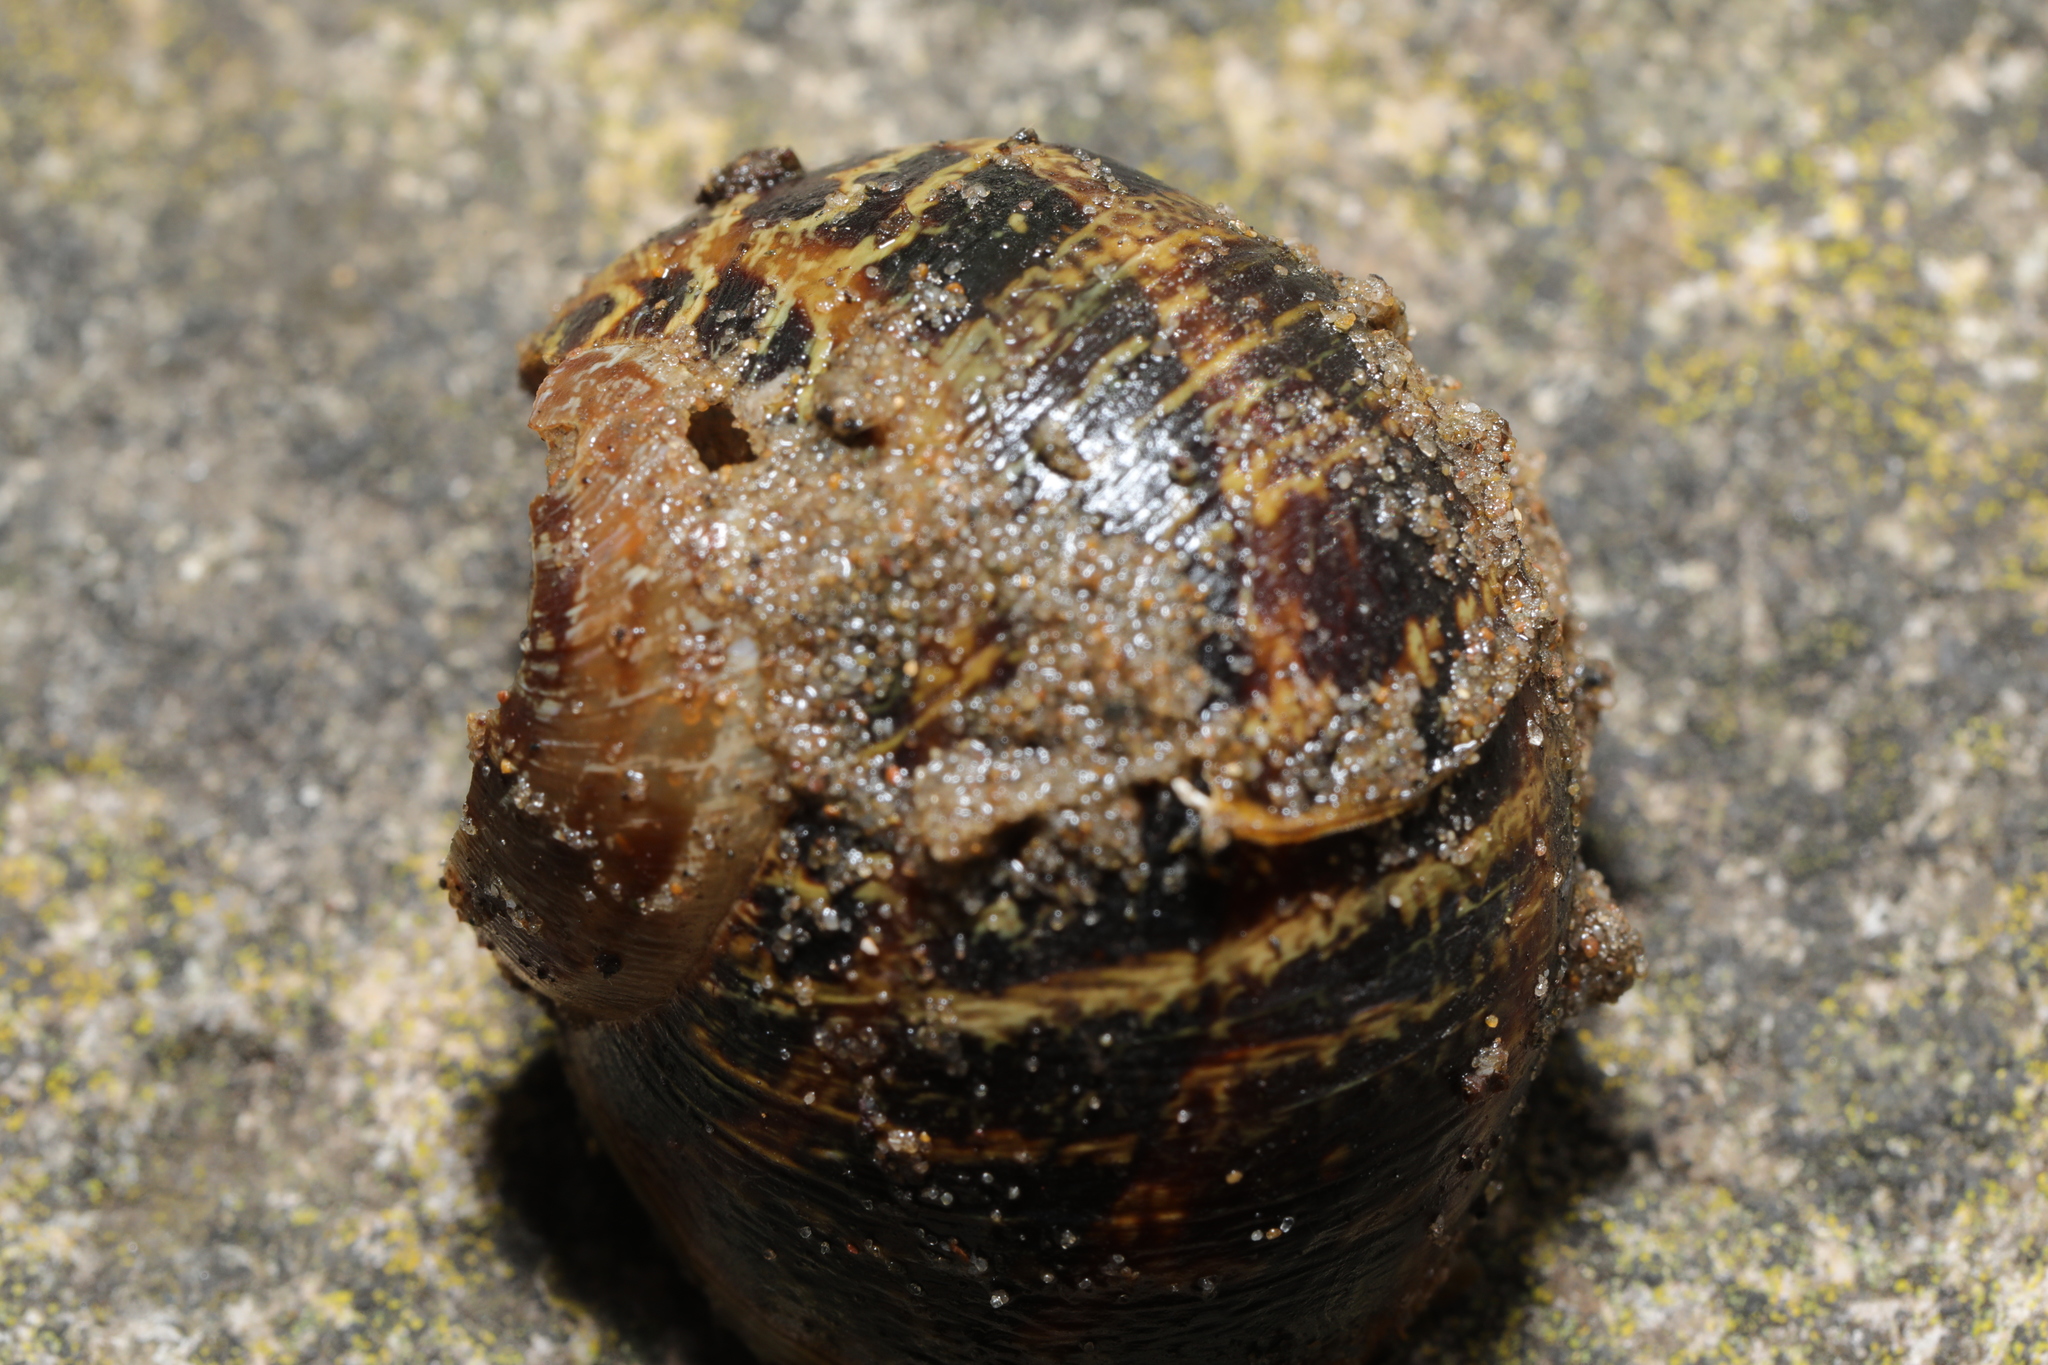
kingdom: Animalia
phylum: Mollusca
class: Gastropoda
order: Stylommatophora
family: Helicidae
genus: Cornu
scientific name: Cornu aspersum
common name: Brown garden snail
